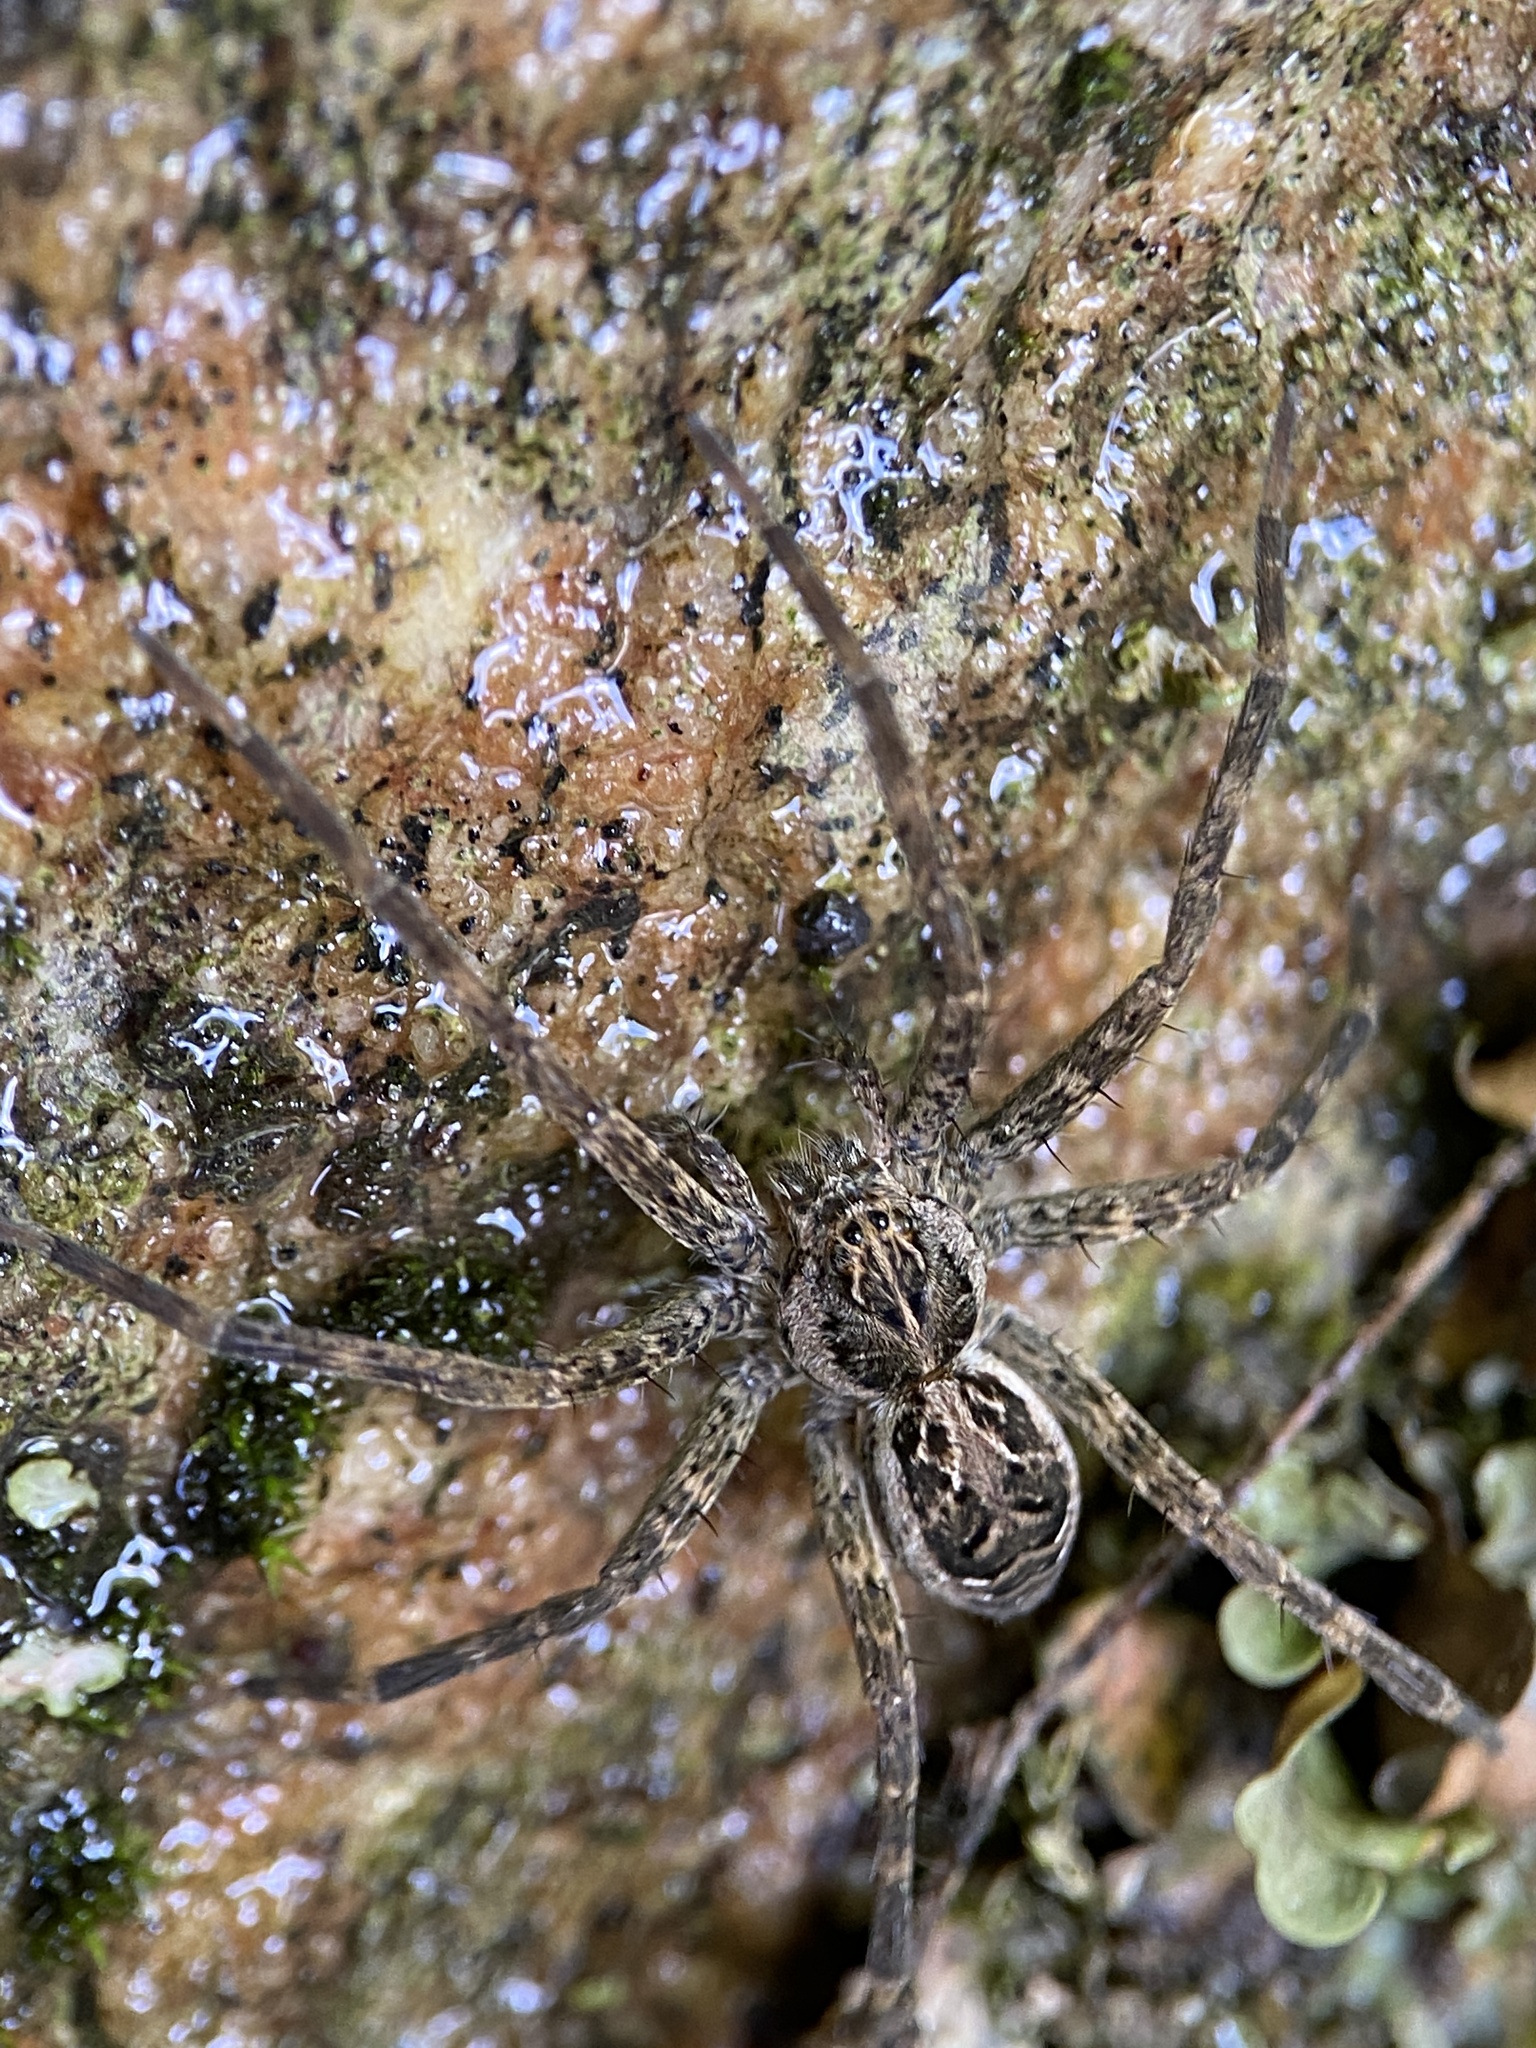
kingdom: Animalia
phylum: Arthropoda
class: Arachnida
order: Araneae
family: Pisauridae
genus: Dolomedes
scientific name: Dolomedes scriptus
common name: Striped fishing spider
